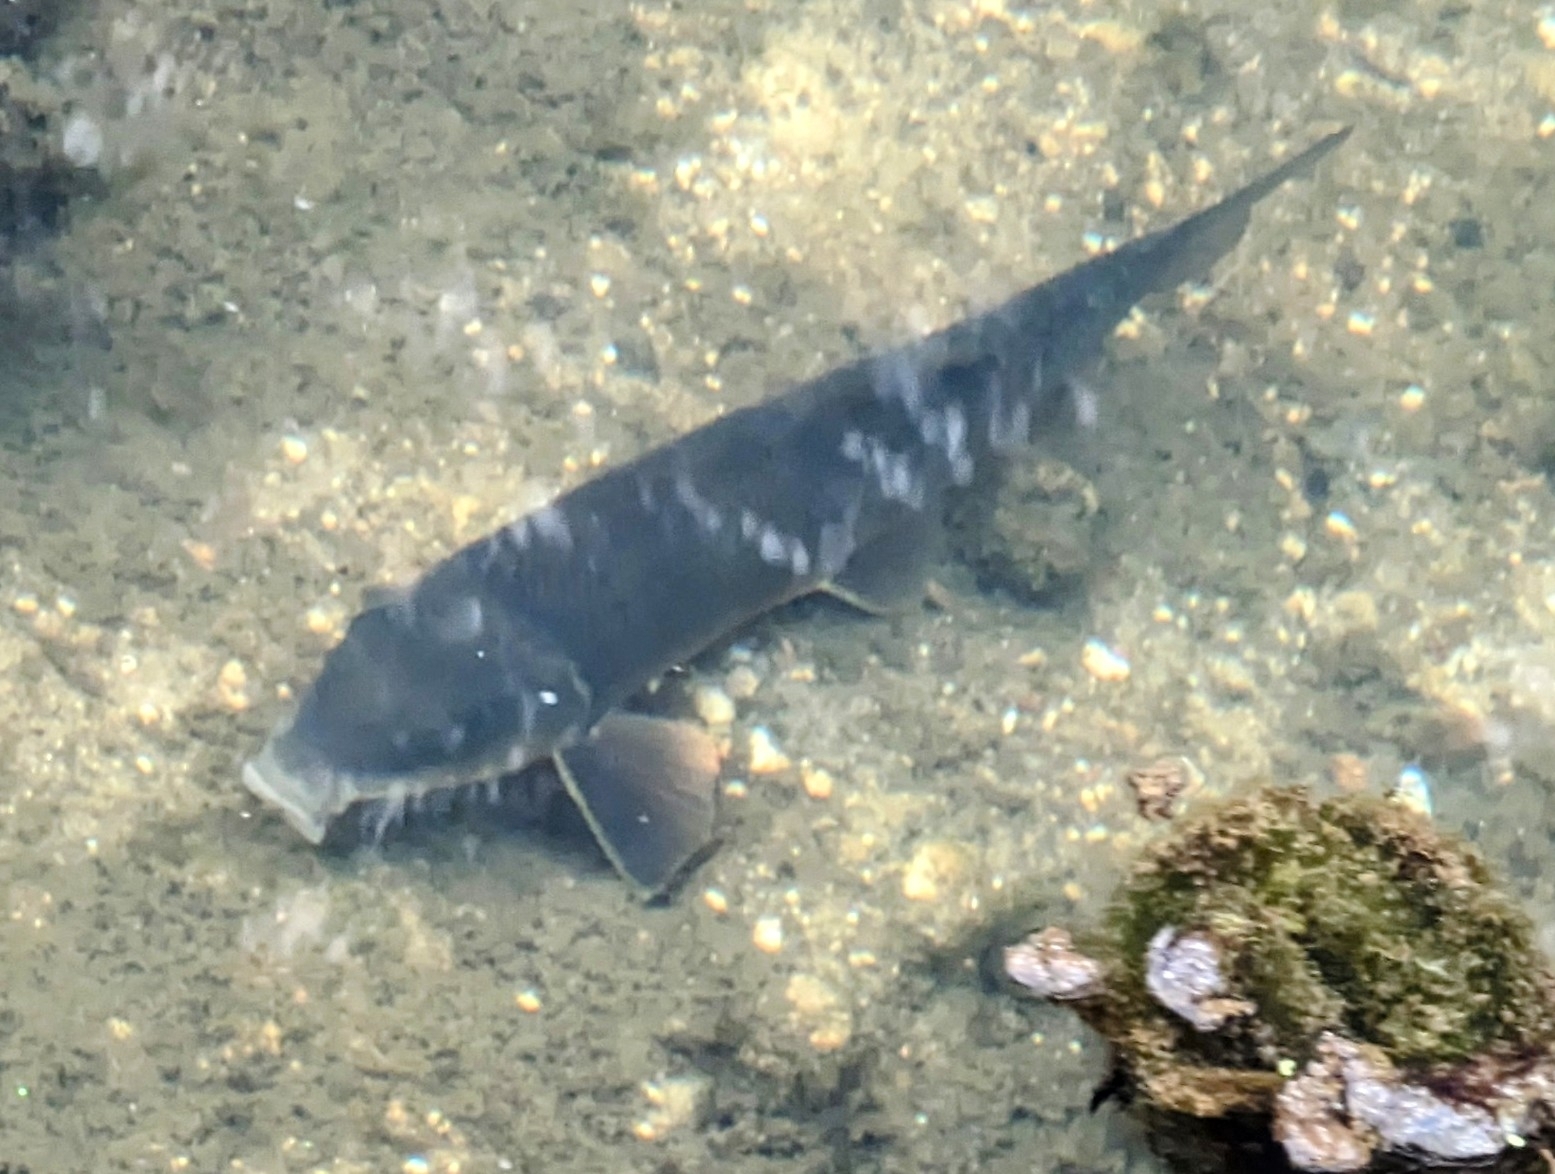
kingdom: Animalia
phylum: Chordata
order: Cypriniformes
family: Catostomidae
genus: Catostomus
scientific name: Catostomus commersonii
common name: White sucker
